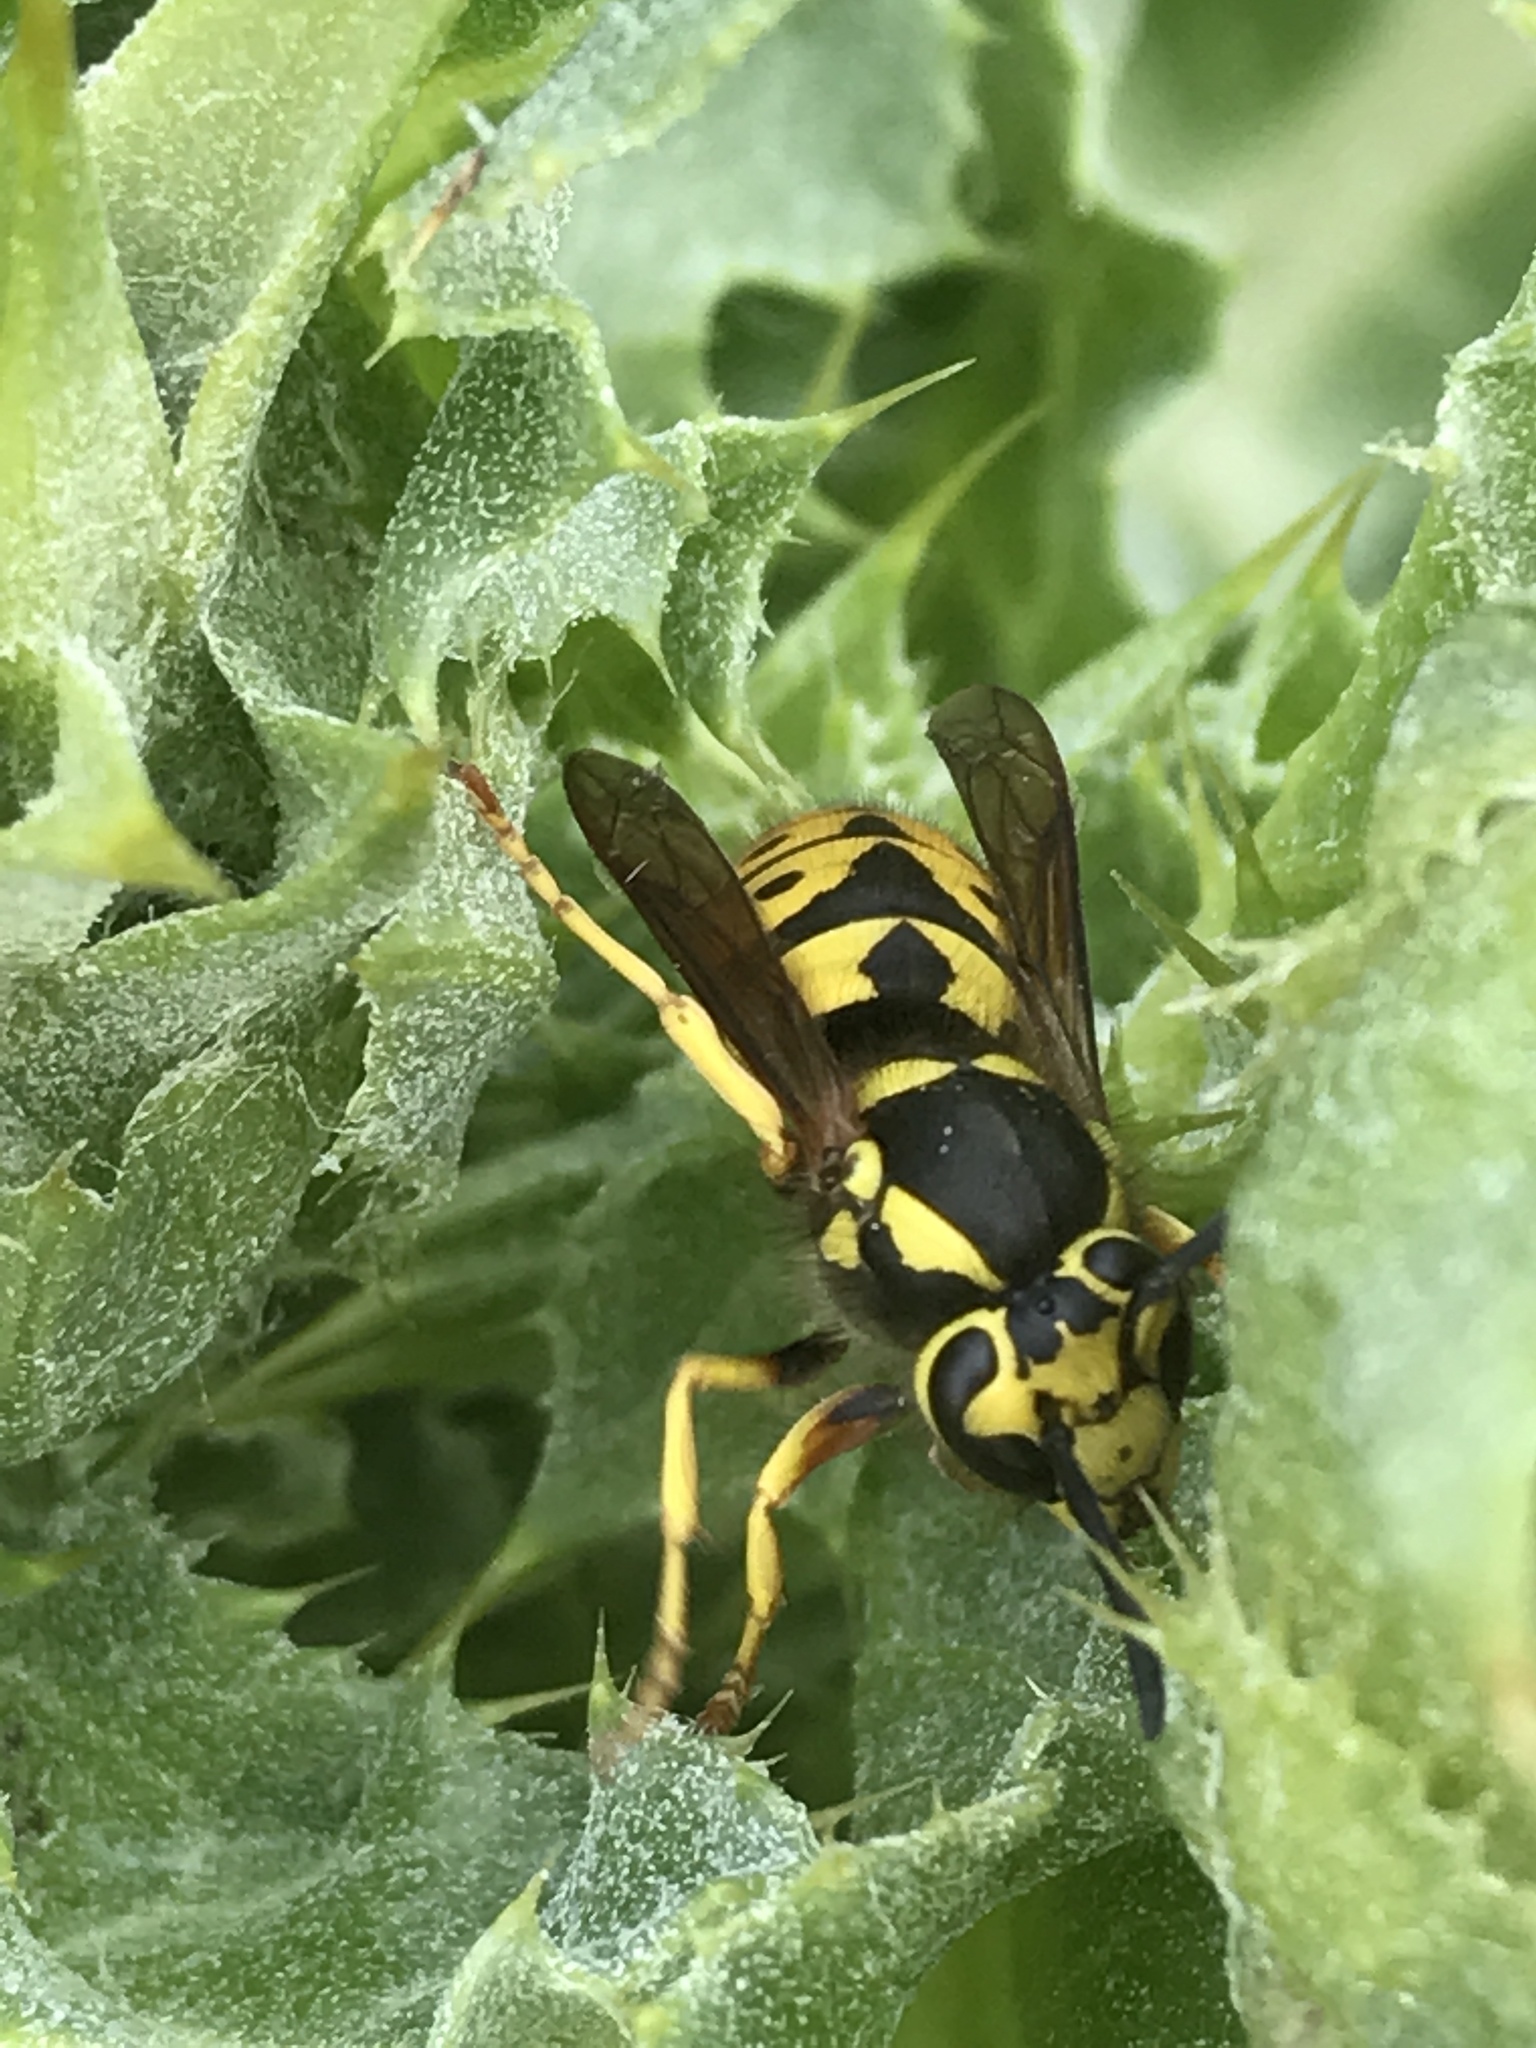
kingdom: Animalia
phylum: Arthropoda
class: Insecta
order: Hymenoptera
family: Vespidae
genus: Vespula
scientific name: Vespula pensylvanica
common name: Western yellowjacket
